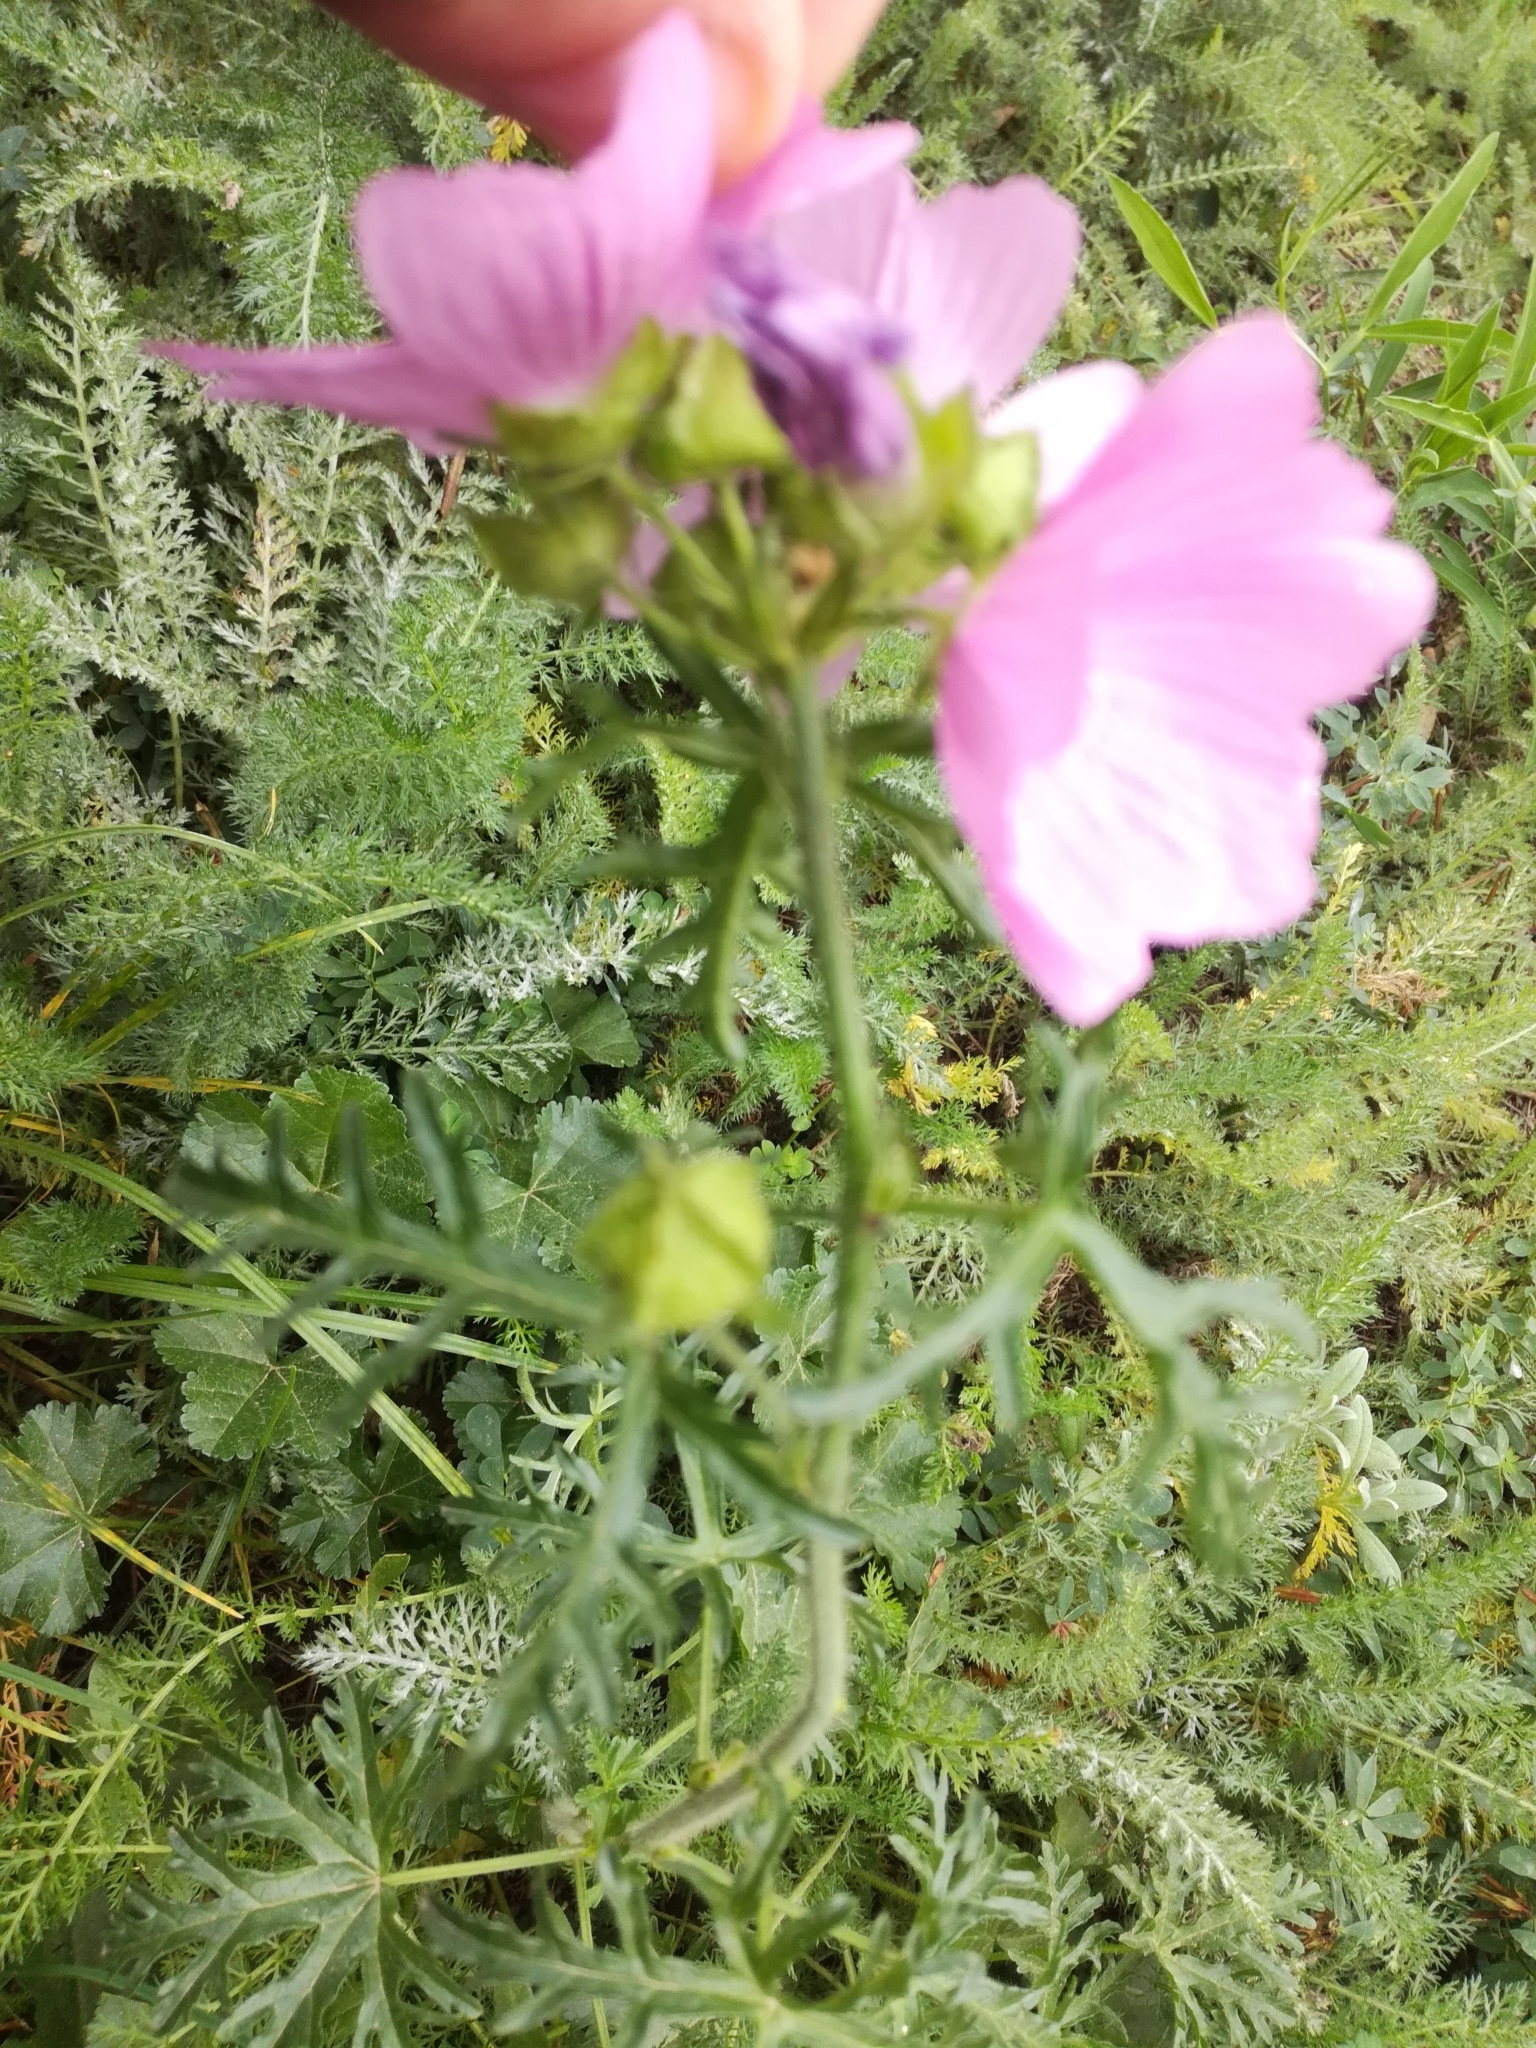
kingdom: Plantae
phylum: Tracheophyta
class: Magnoliopsida
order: Malvales
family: Malvaceae
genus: Malva
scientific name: Malva moschata
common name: Musk mallow
